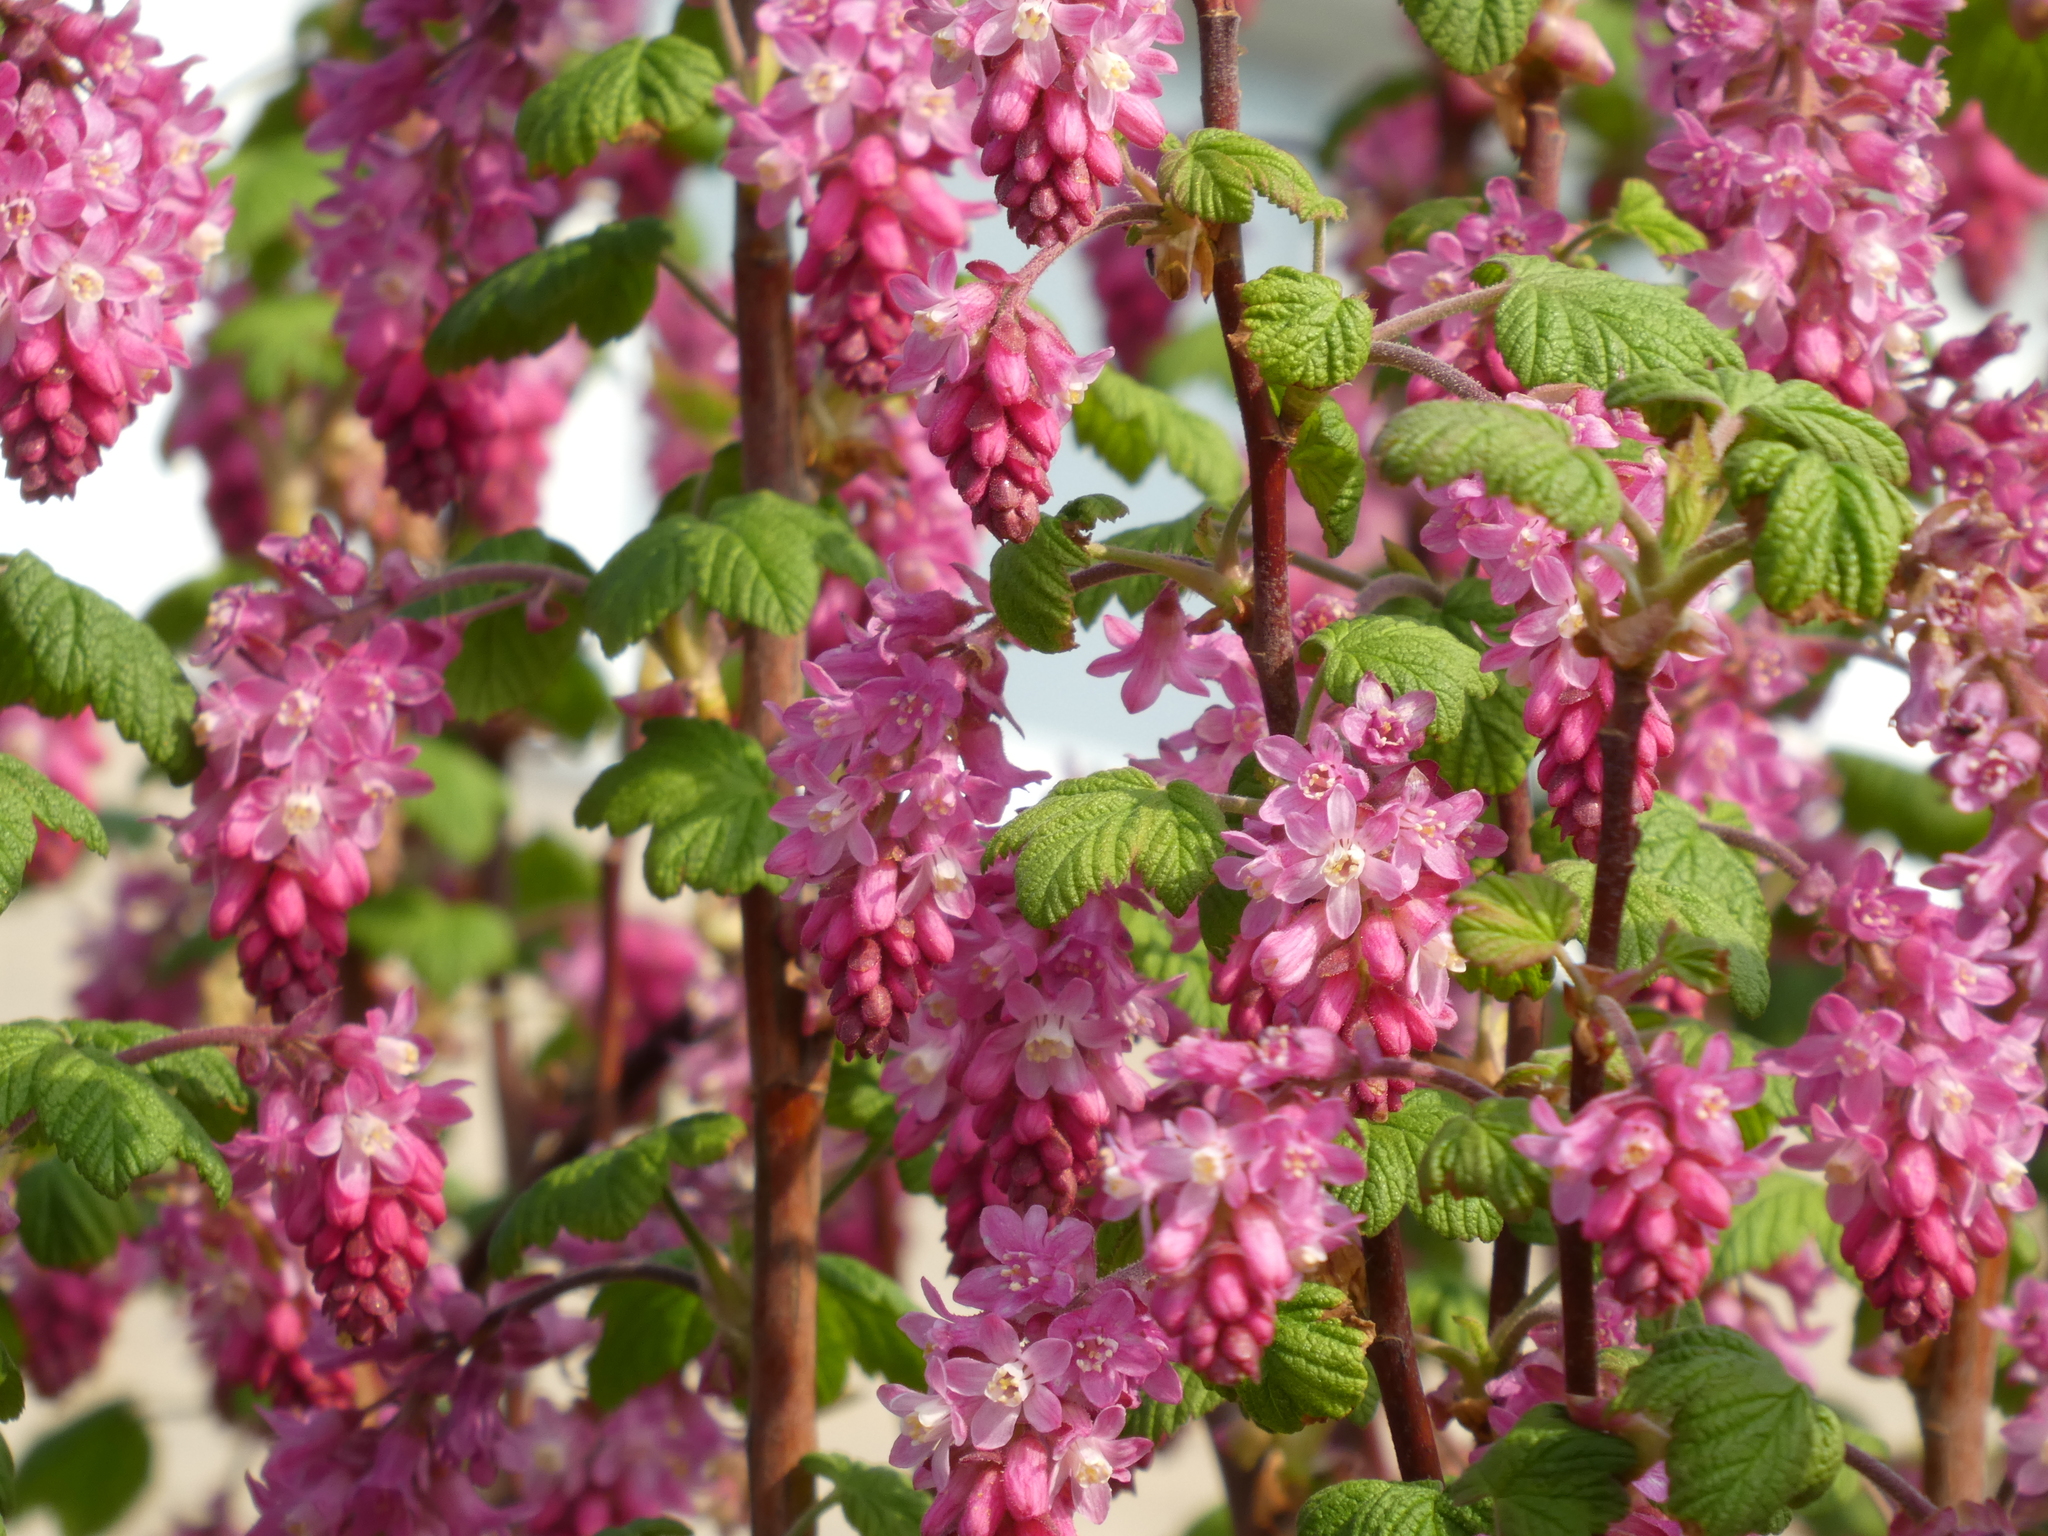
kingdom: Plantae
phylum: Tracheophyta
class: Magnoliopsida
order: Saxifragales
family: Grossulariaceae
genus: Ribes
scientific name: Ribes sanguineum
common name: Flowering currant
